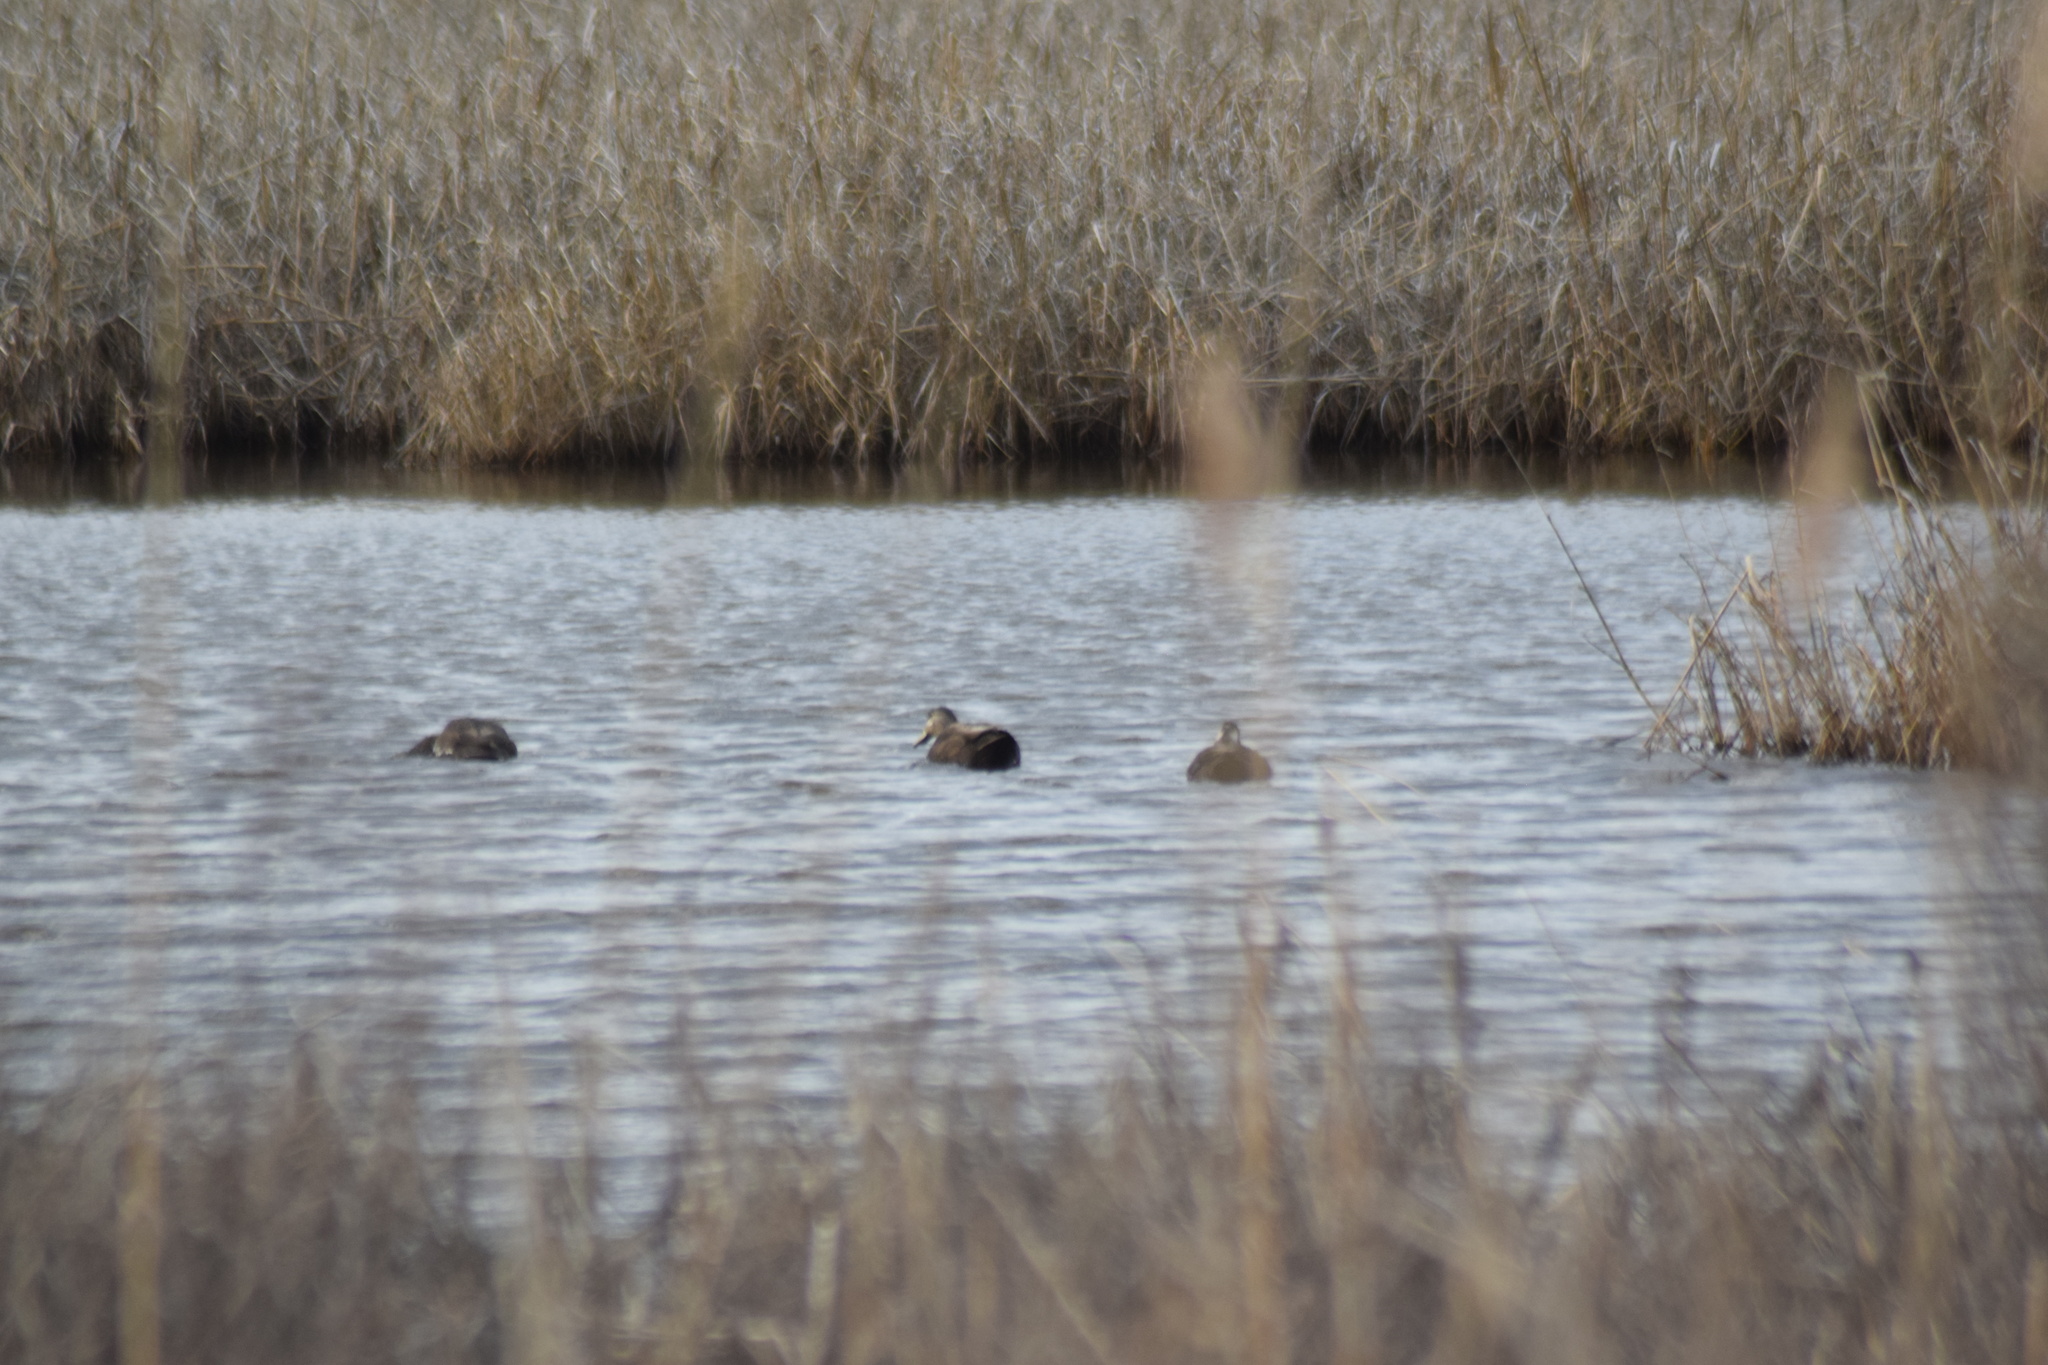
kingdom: Animalia
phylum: Chordata
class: Aves
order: Anseriformes
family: Anatidae
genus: Anas
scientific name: Anas rubripes
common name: American black duck
